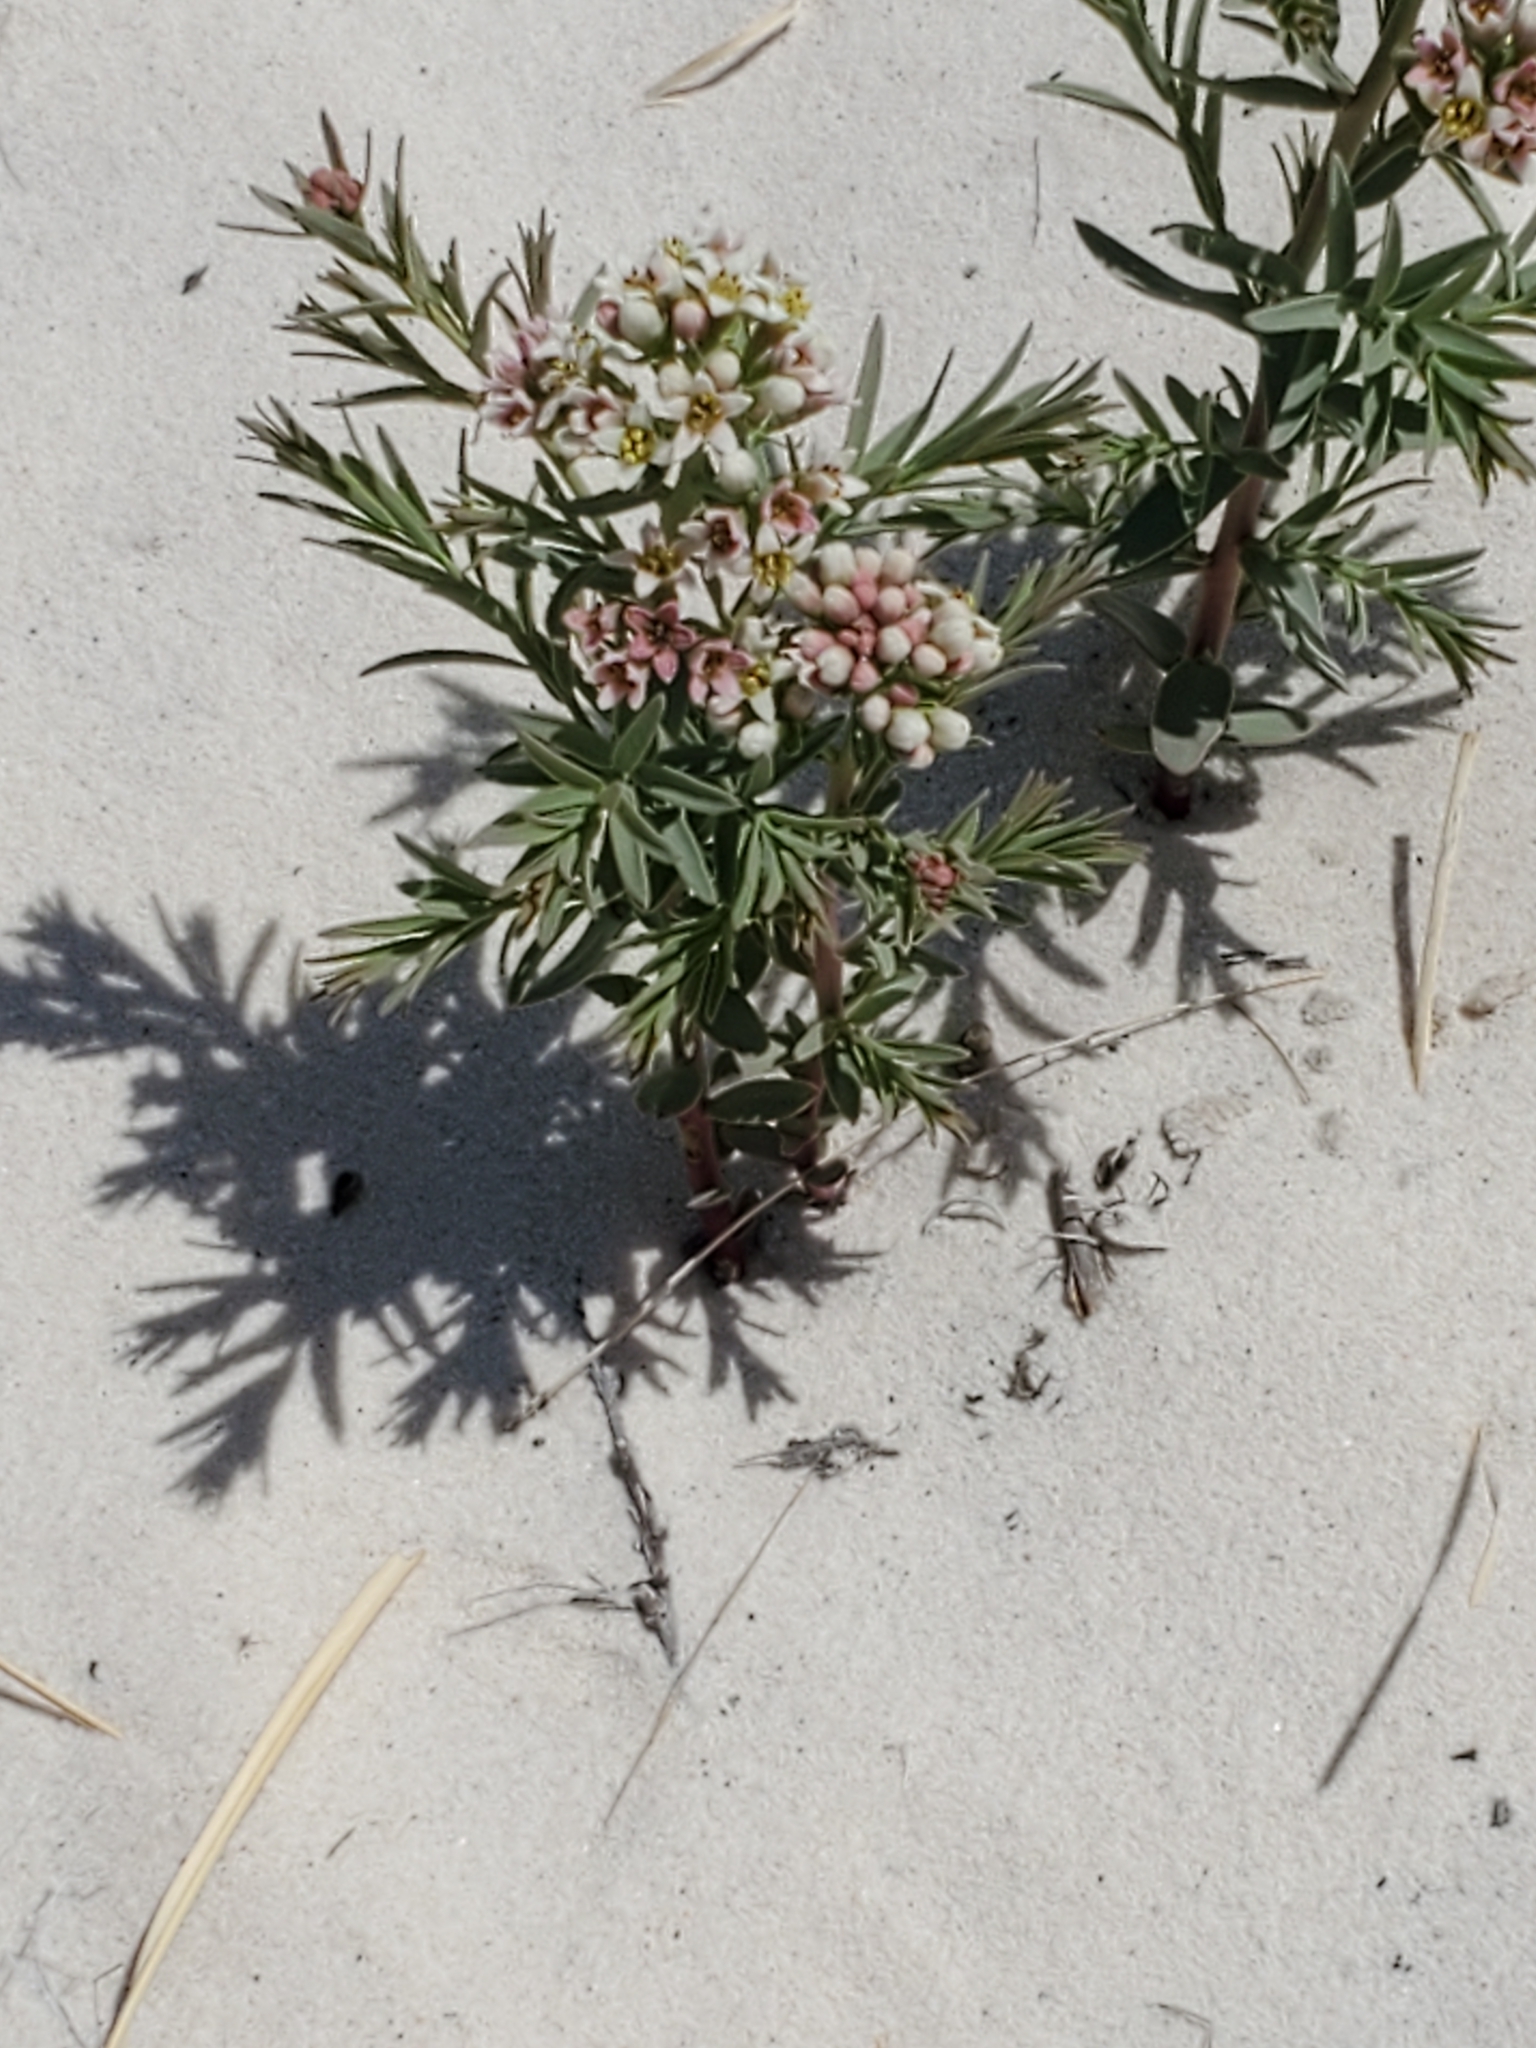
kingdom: Plantae
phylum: Tracheophyta
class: Magnoliopsida
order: Santalales
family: Comandraceae
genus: Comandra
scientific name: Comandra umbellata
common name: Bastard toadflax
